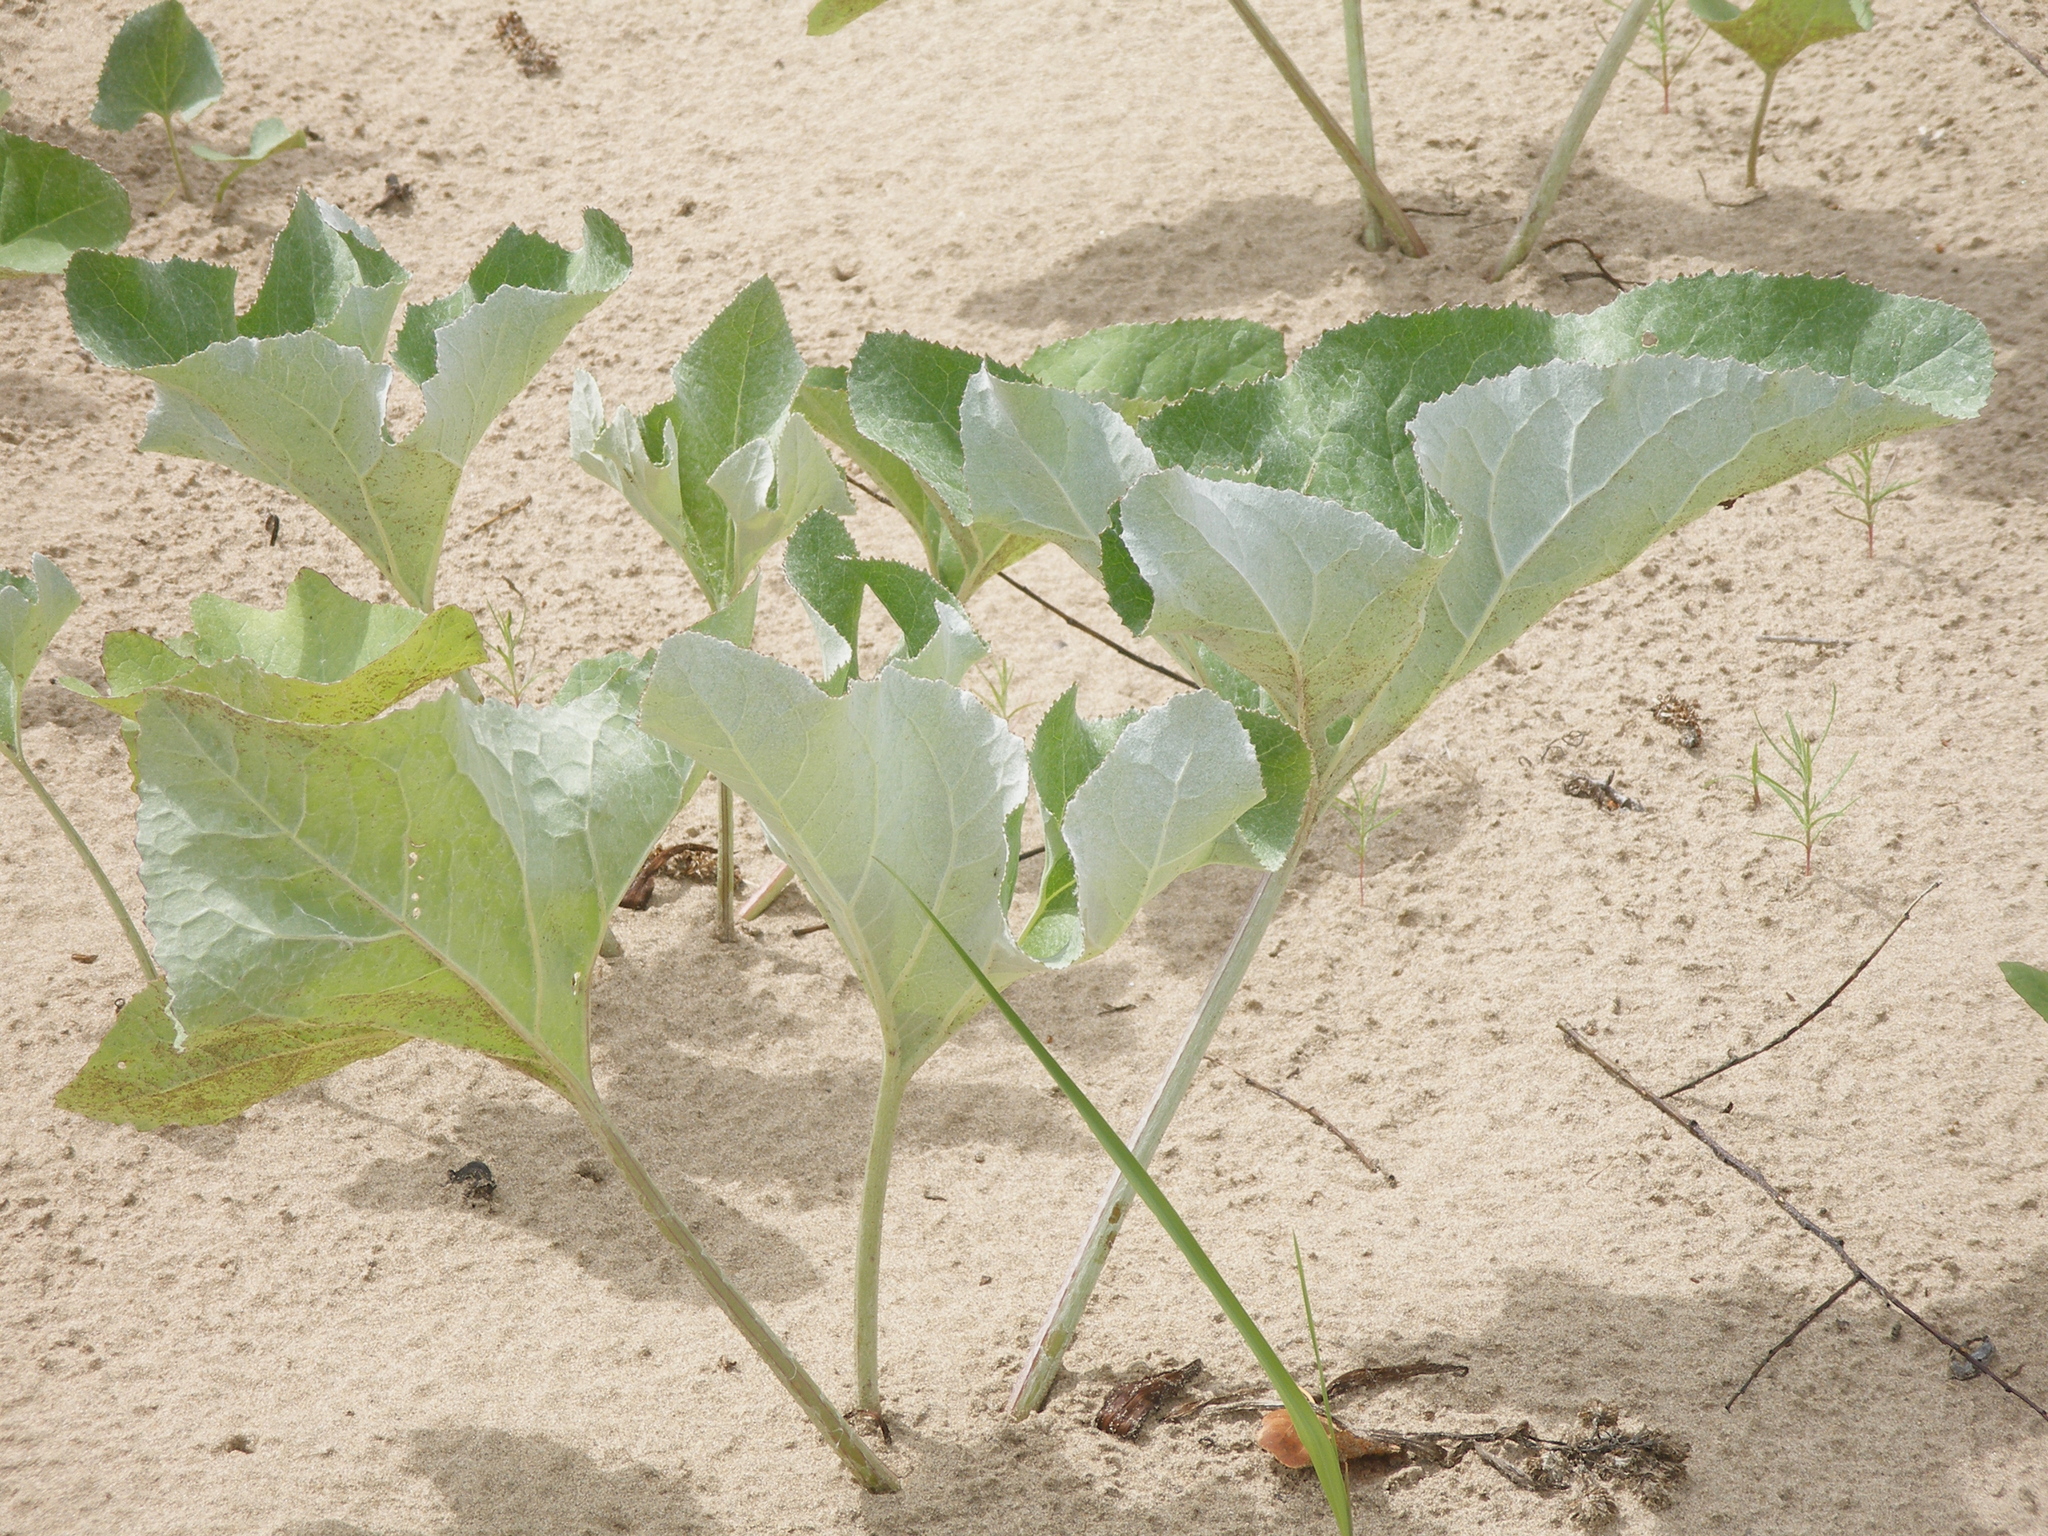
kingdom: Plantae
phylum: Tracheophyta
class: Magnoliopsida
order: Asterales
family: Asteraceae
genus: Petasites
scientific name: Petasites spurius
